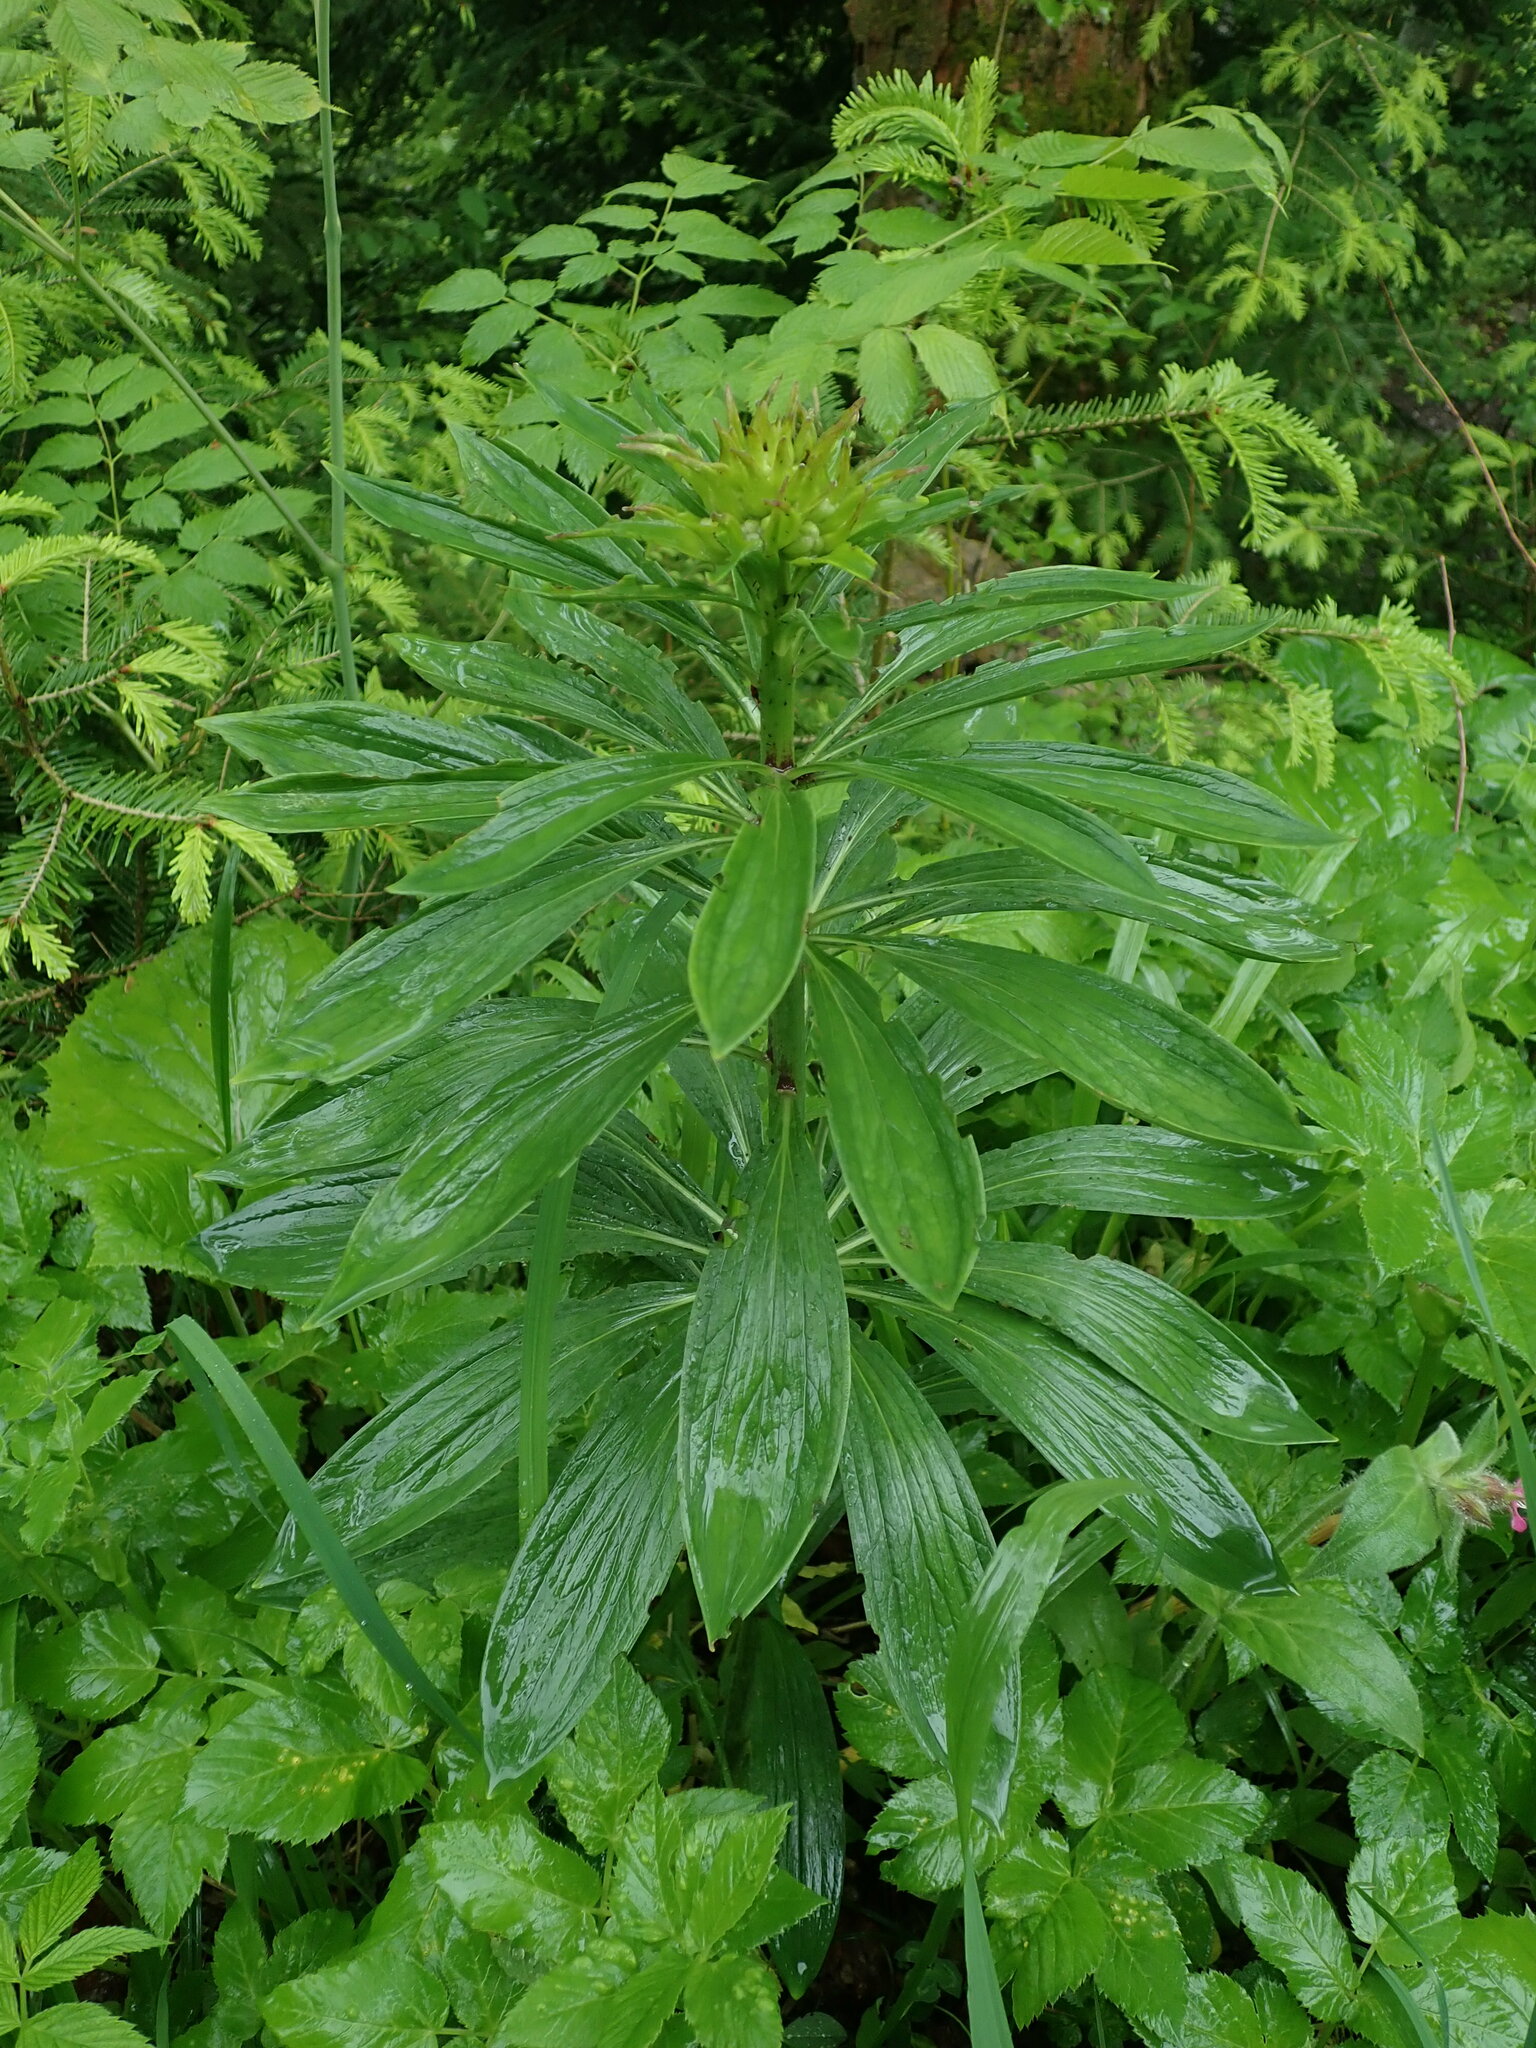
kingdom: Plantae
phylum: Tracheophyta
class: Liliopsida
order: Liliales
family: Liliaceae
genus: Lilium
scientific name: Lilium martagon
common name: Martagon lily
